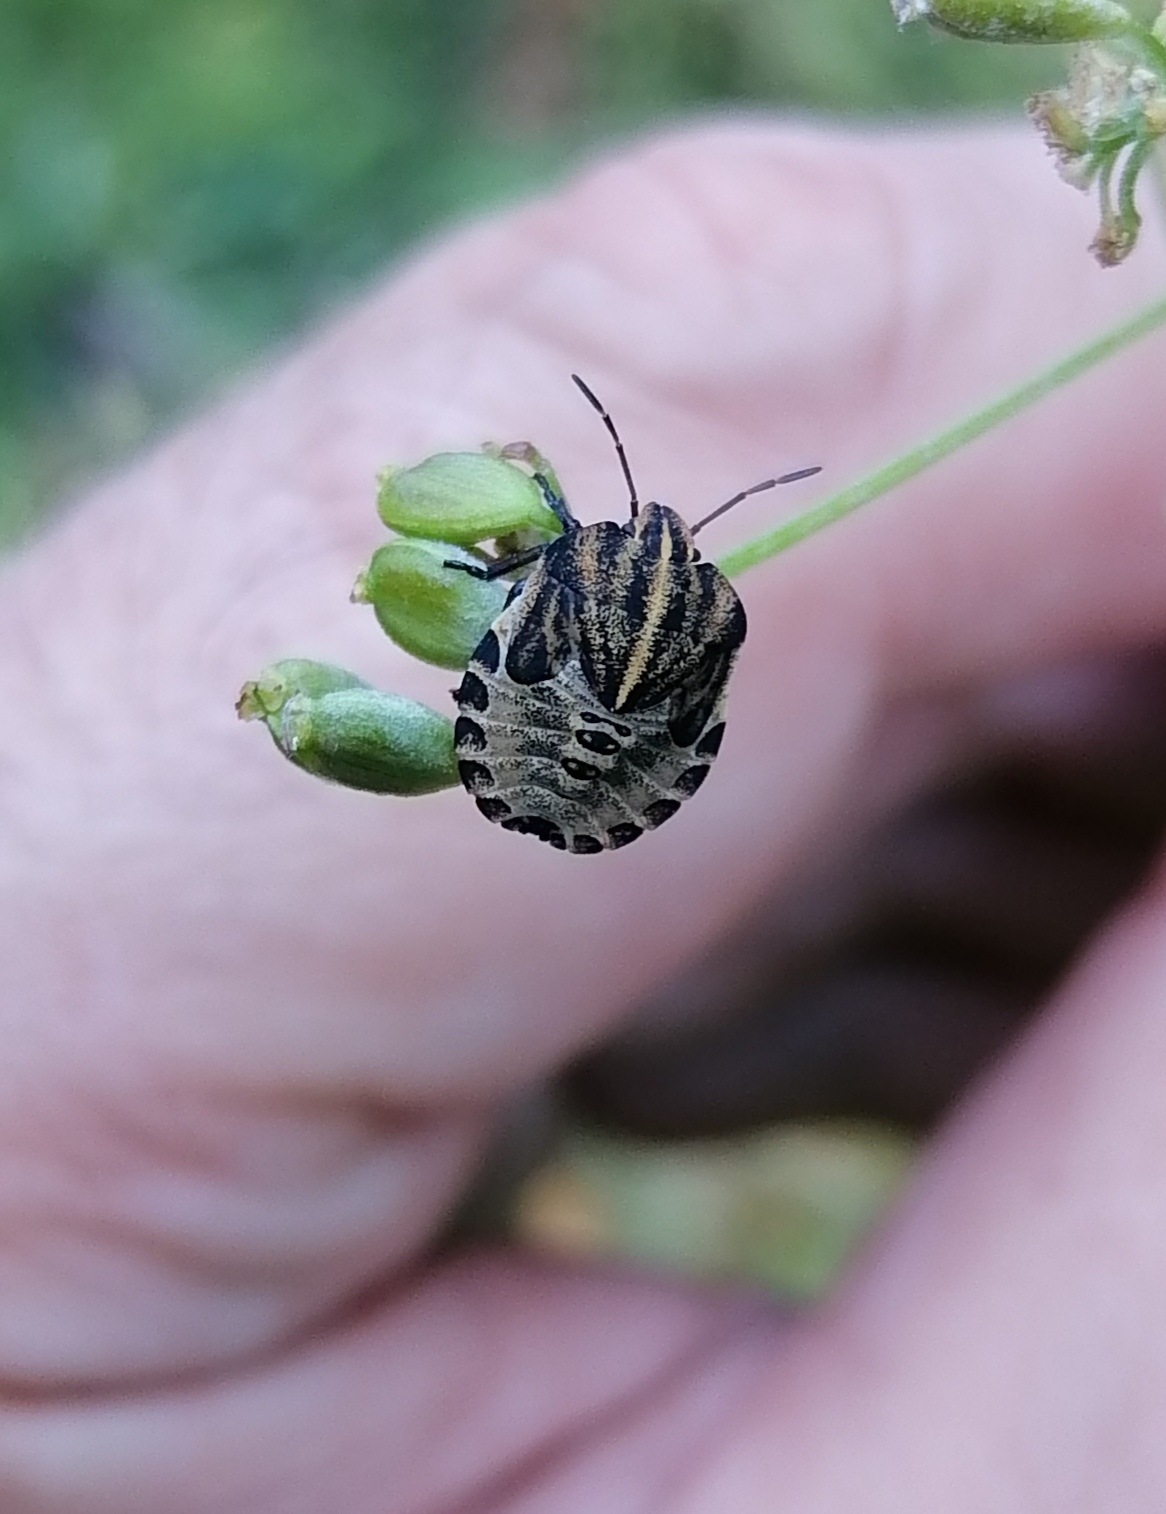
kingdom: Animalia
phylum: Arthropoda
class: Insecta
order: Hemiptera
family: Pentatomidae
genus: Graphosoma
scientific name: Graphosoma italicum
